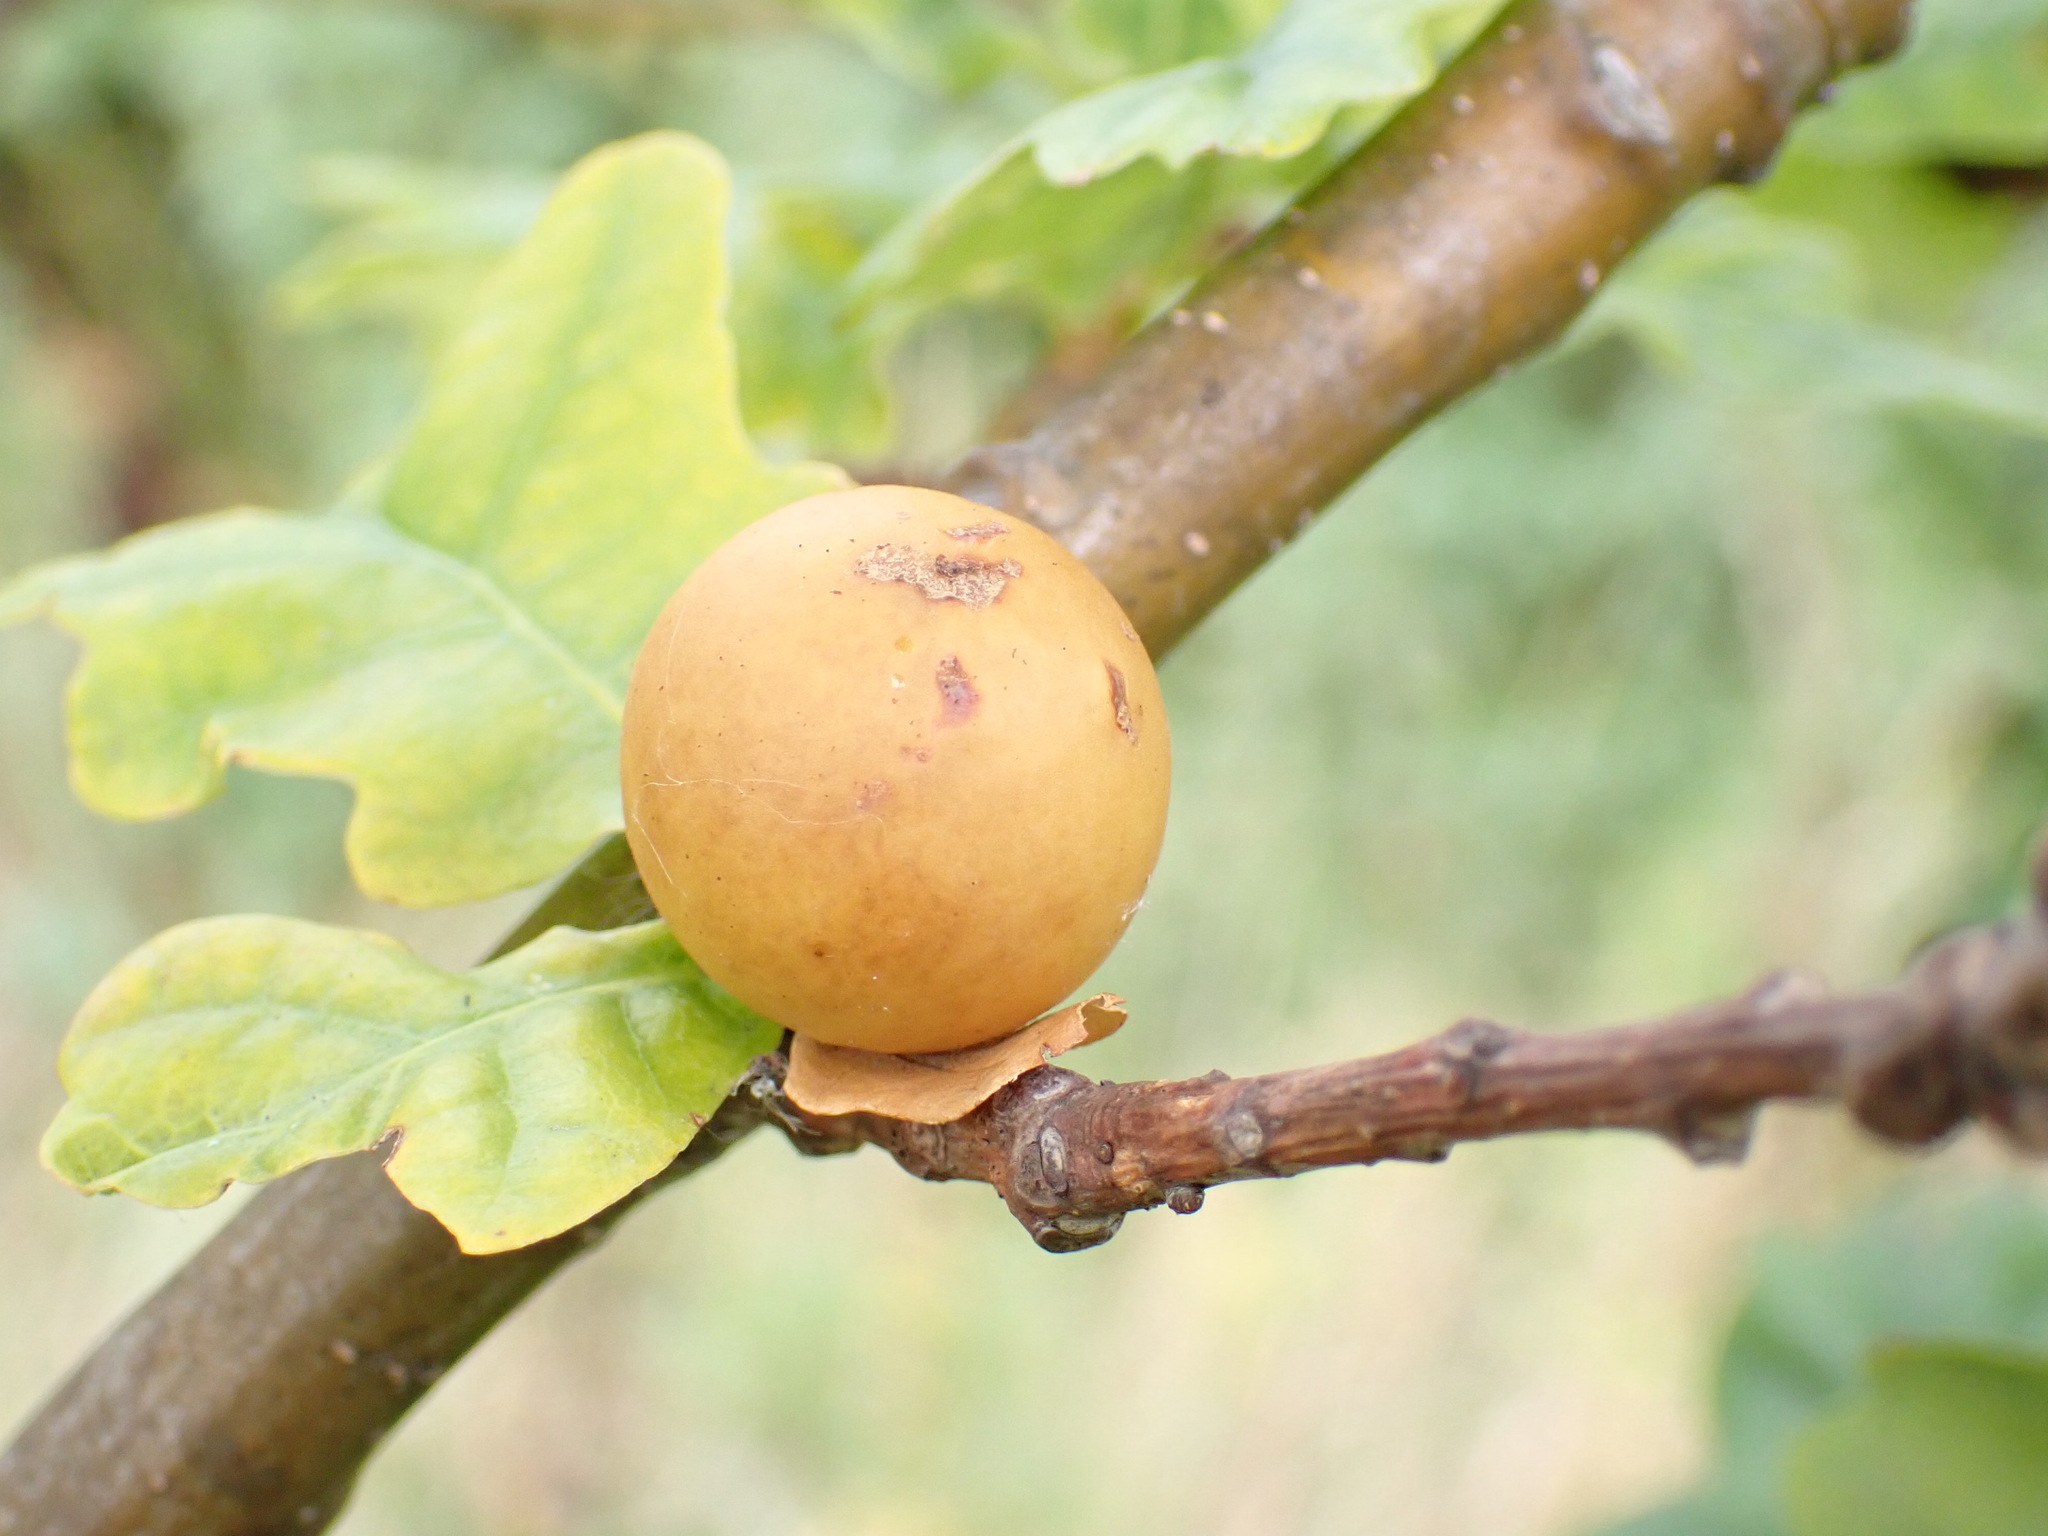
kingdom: Animalia
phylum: Arthropoda
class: Insecta
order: Hymenoptera
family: Cynipidae
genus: Andricus
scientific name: Andricus kollari
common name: Marble gall
